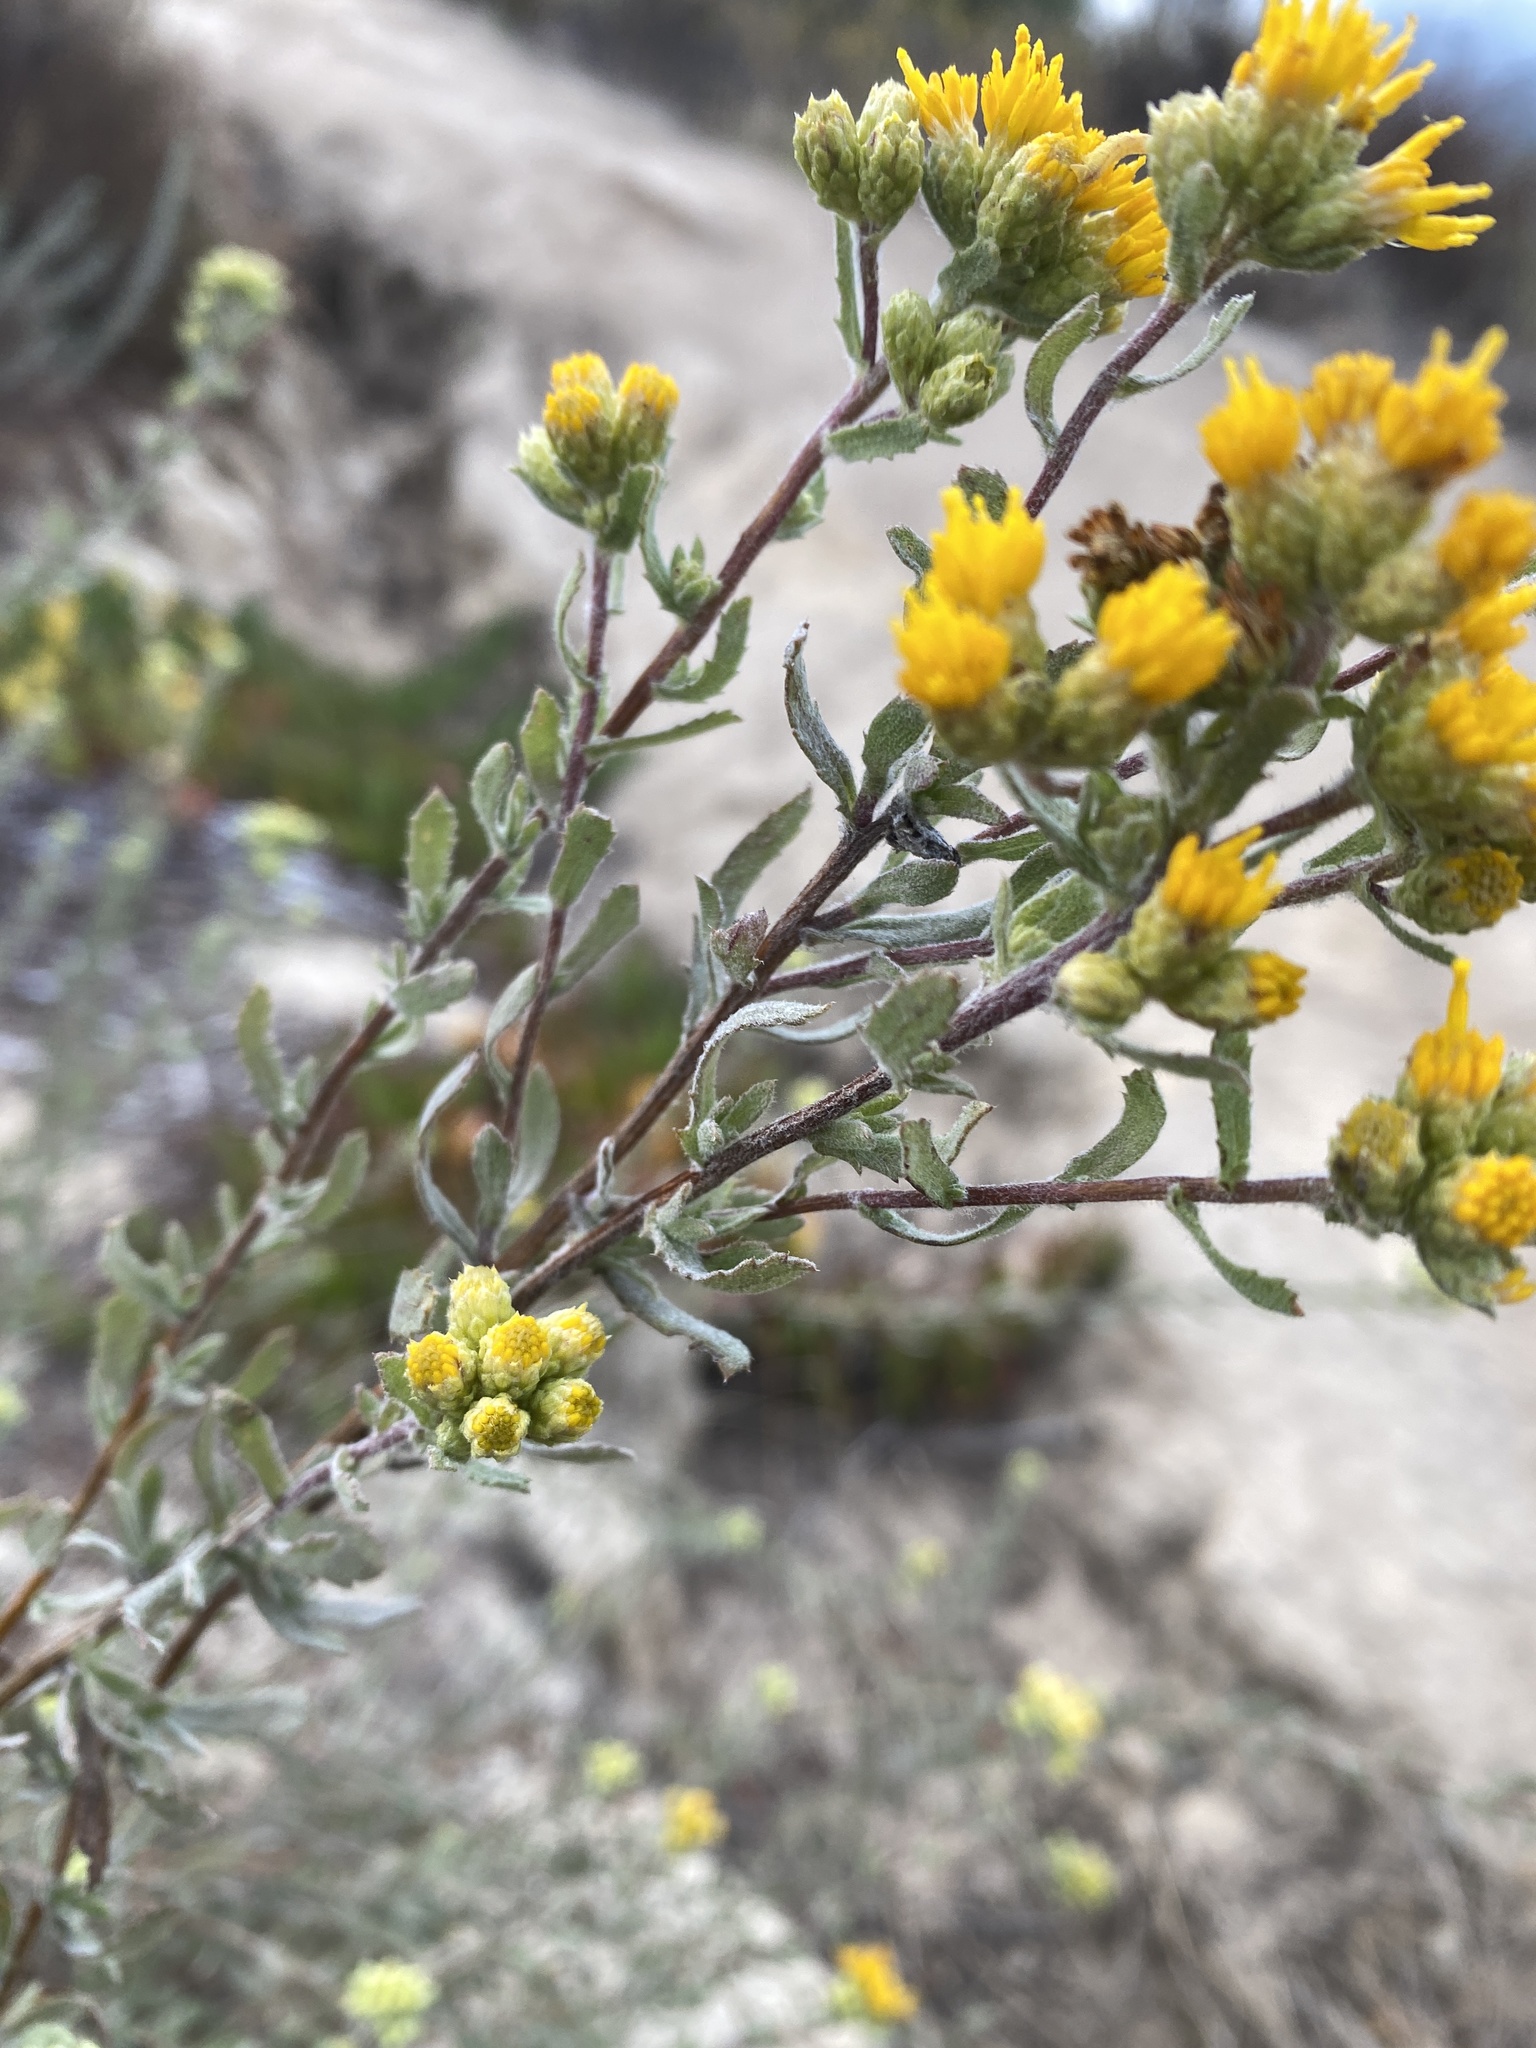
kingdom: Plantae
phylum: Tracheophyta
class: Magnoliopsida
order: Asterales
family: Asteraceae
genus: Isocoma
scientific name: Isocoma menziesii
